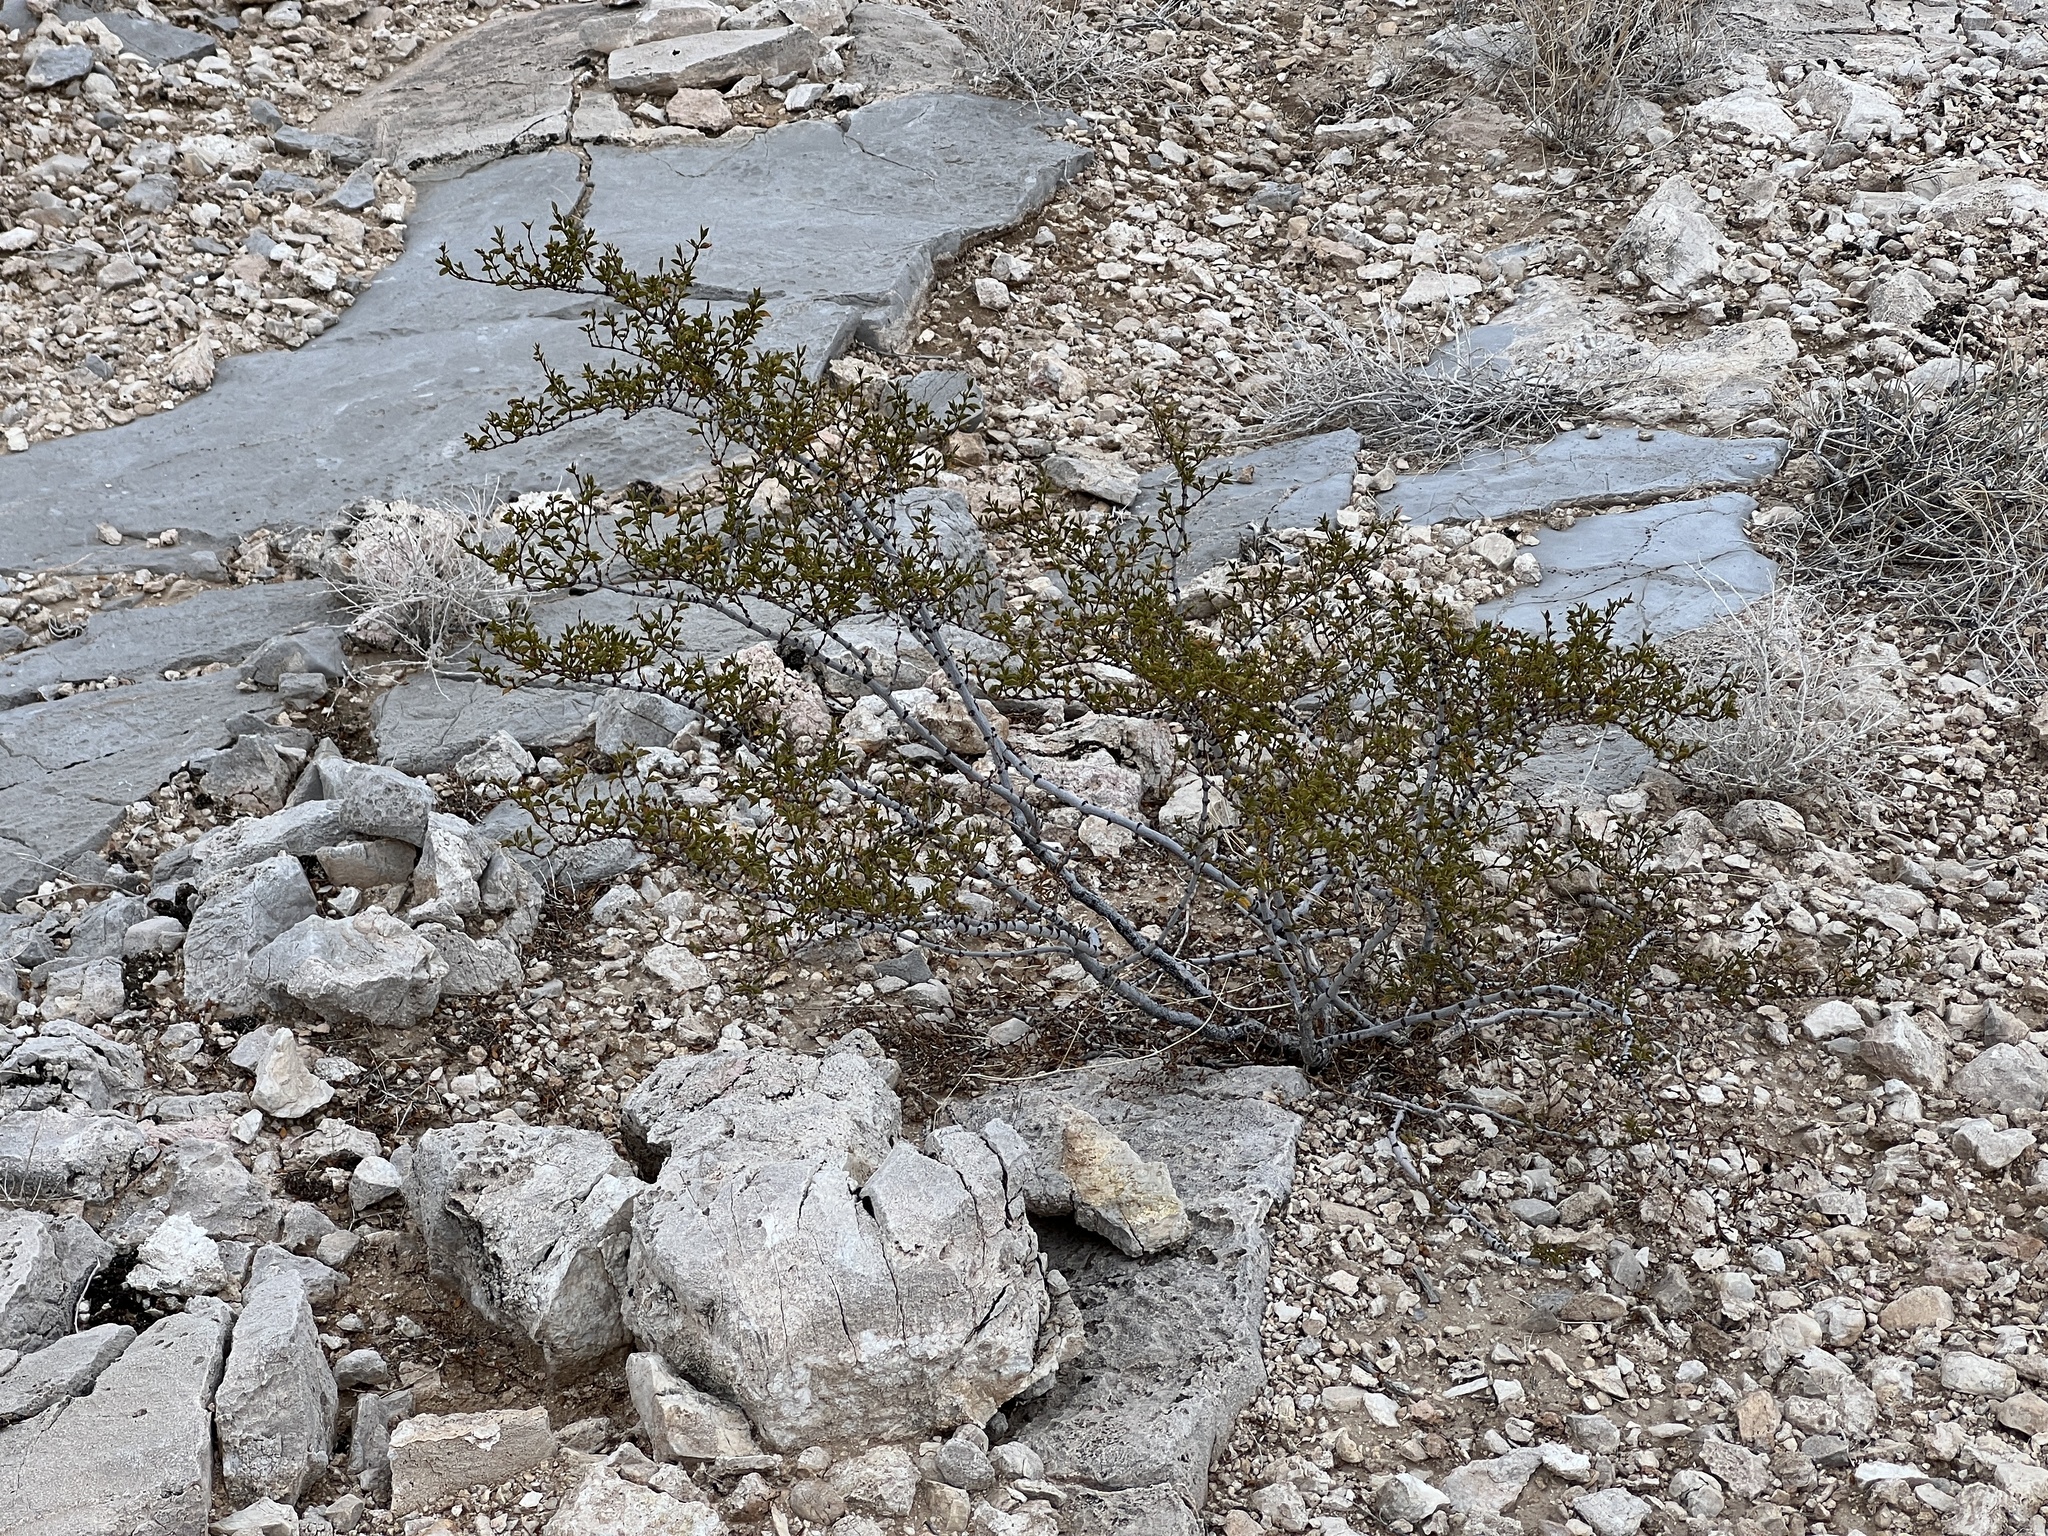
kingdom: Plantae
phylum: Tracheophyta
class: Magnoliopsida
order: Zygophyllales
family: Zygophyllaceae
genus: Larrea
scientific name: Larrea tridentata
